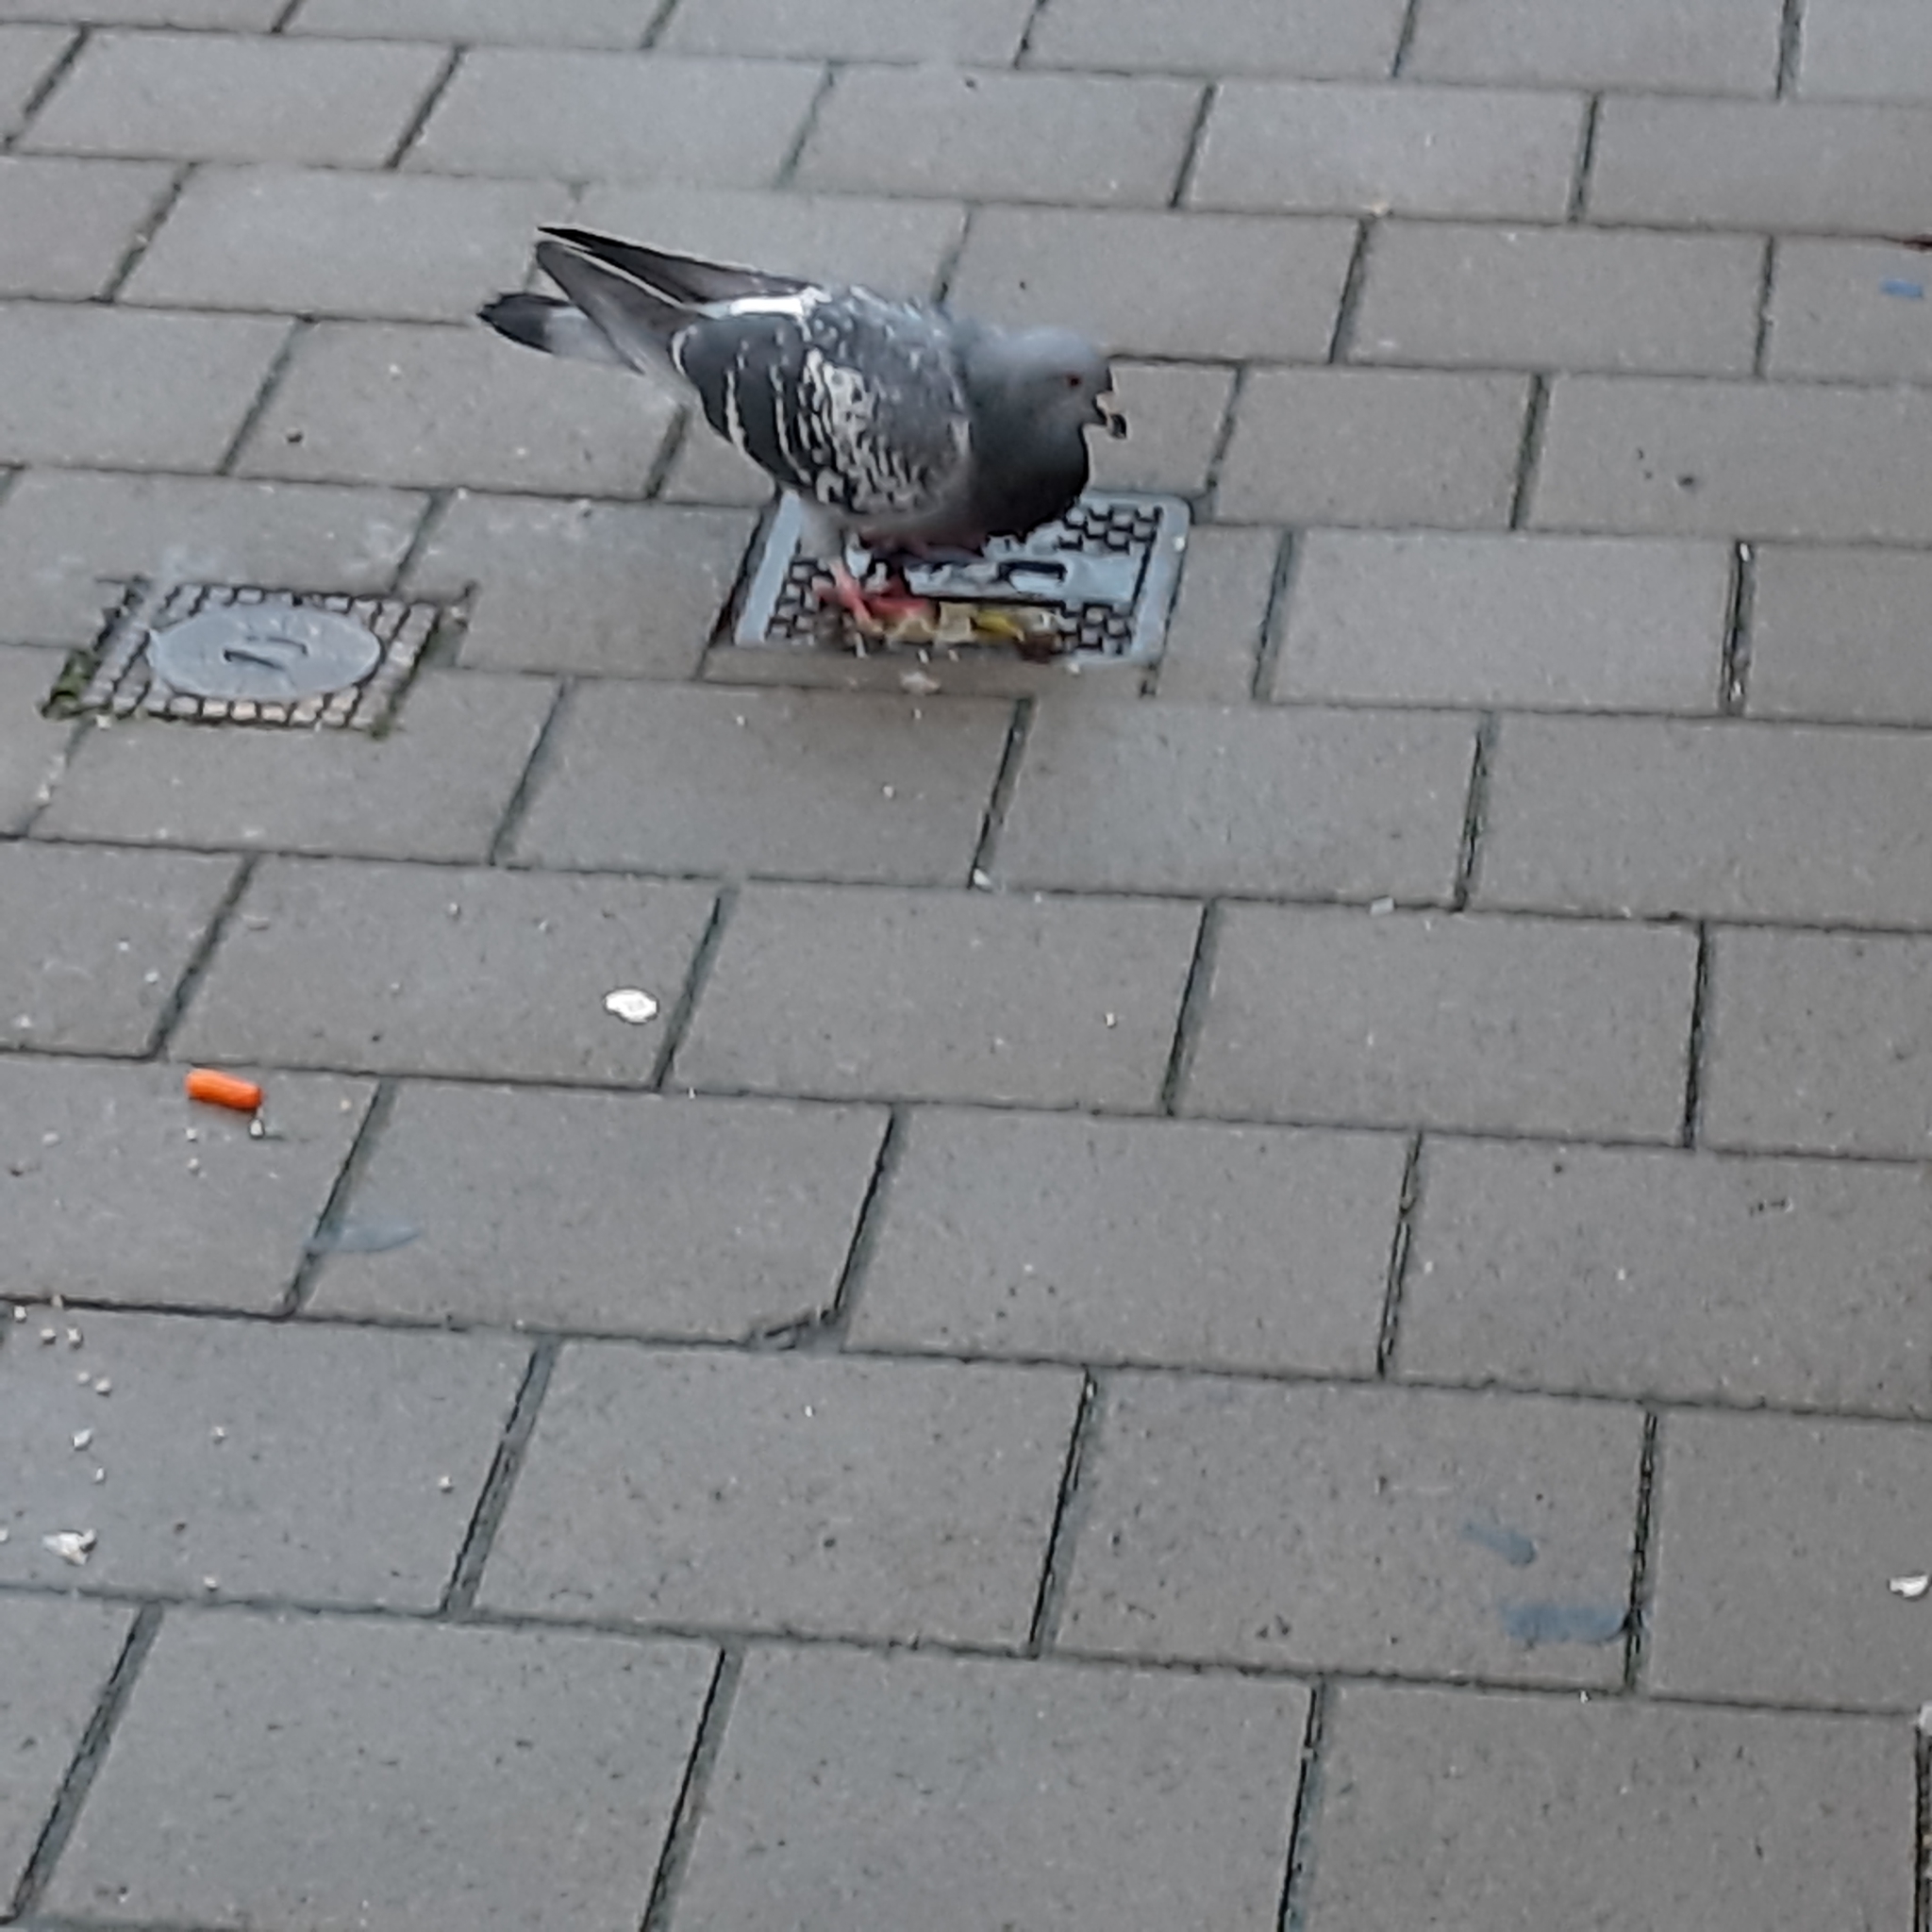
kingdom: Animalia
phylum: Chordata
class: Aves
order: Columbiformes
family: Columbidae
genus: Columba
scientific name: Columba livia
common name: Rock pigeon
